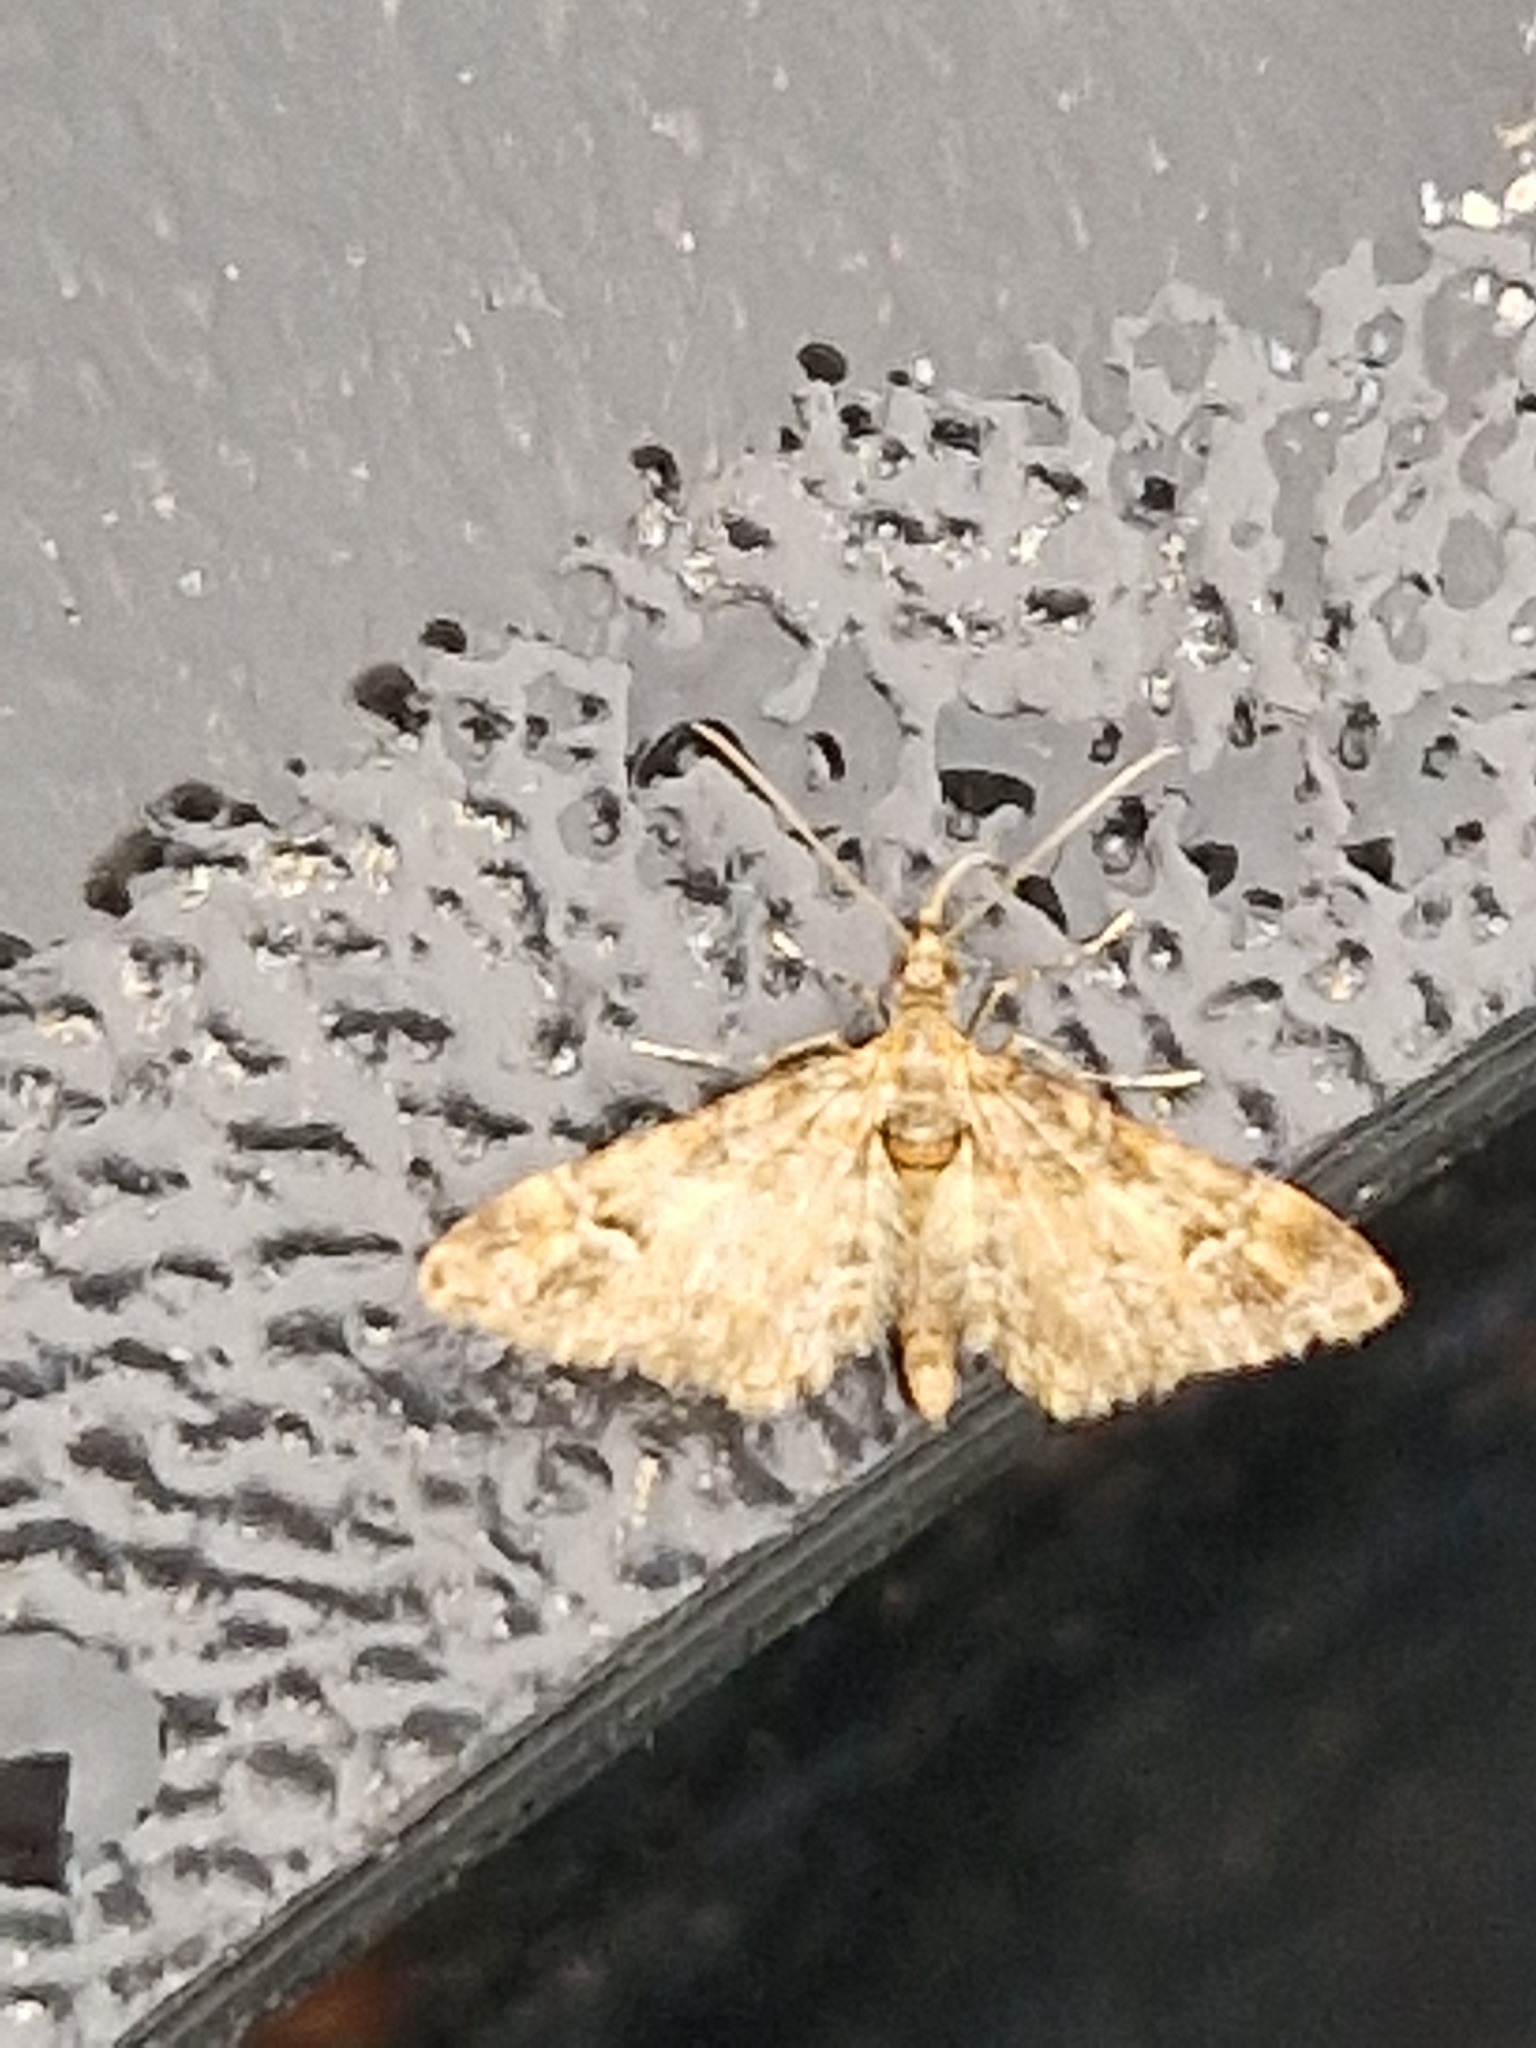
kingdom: Animalia
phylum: Arthropoda
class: Insecta
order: Lepidoptera
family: Geometridae
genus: Gymnoscelis
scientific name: Gymnoscelis rufifasciata
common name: Double-striped pug
